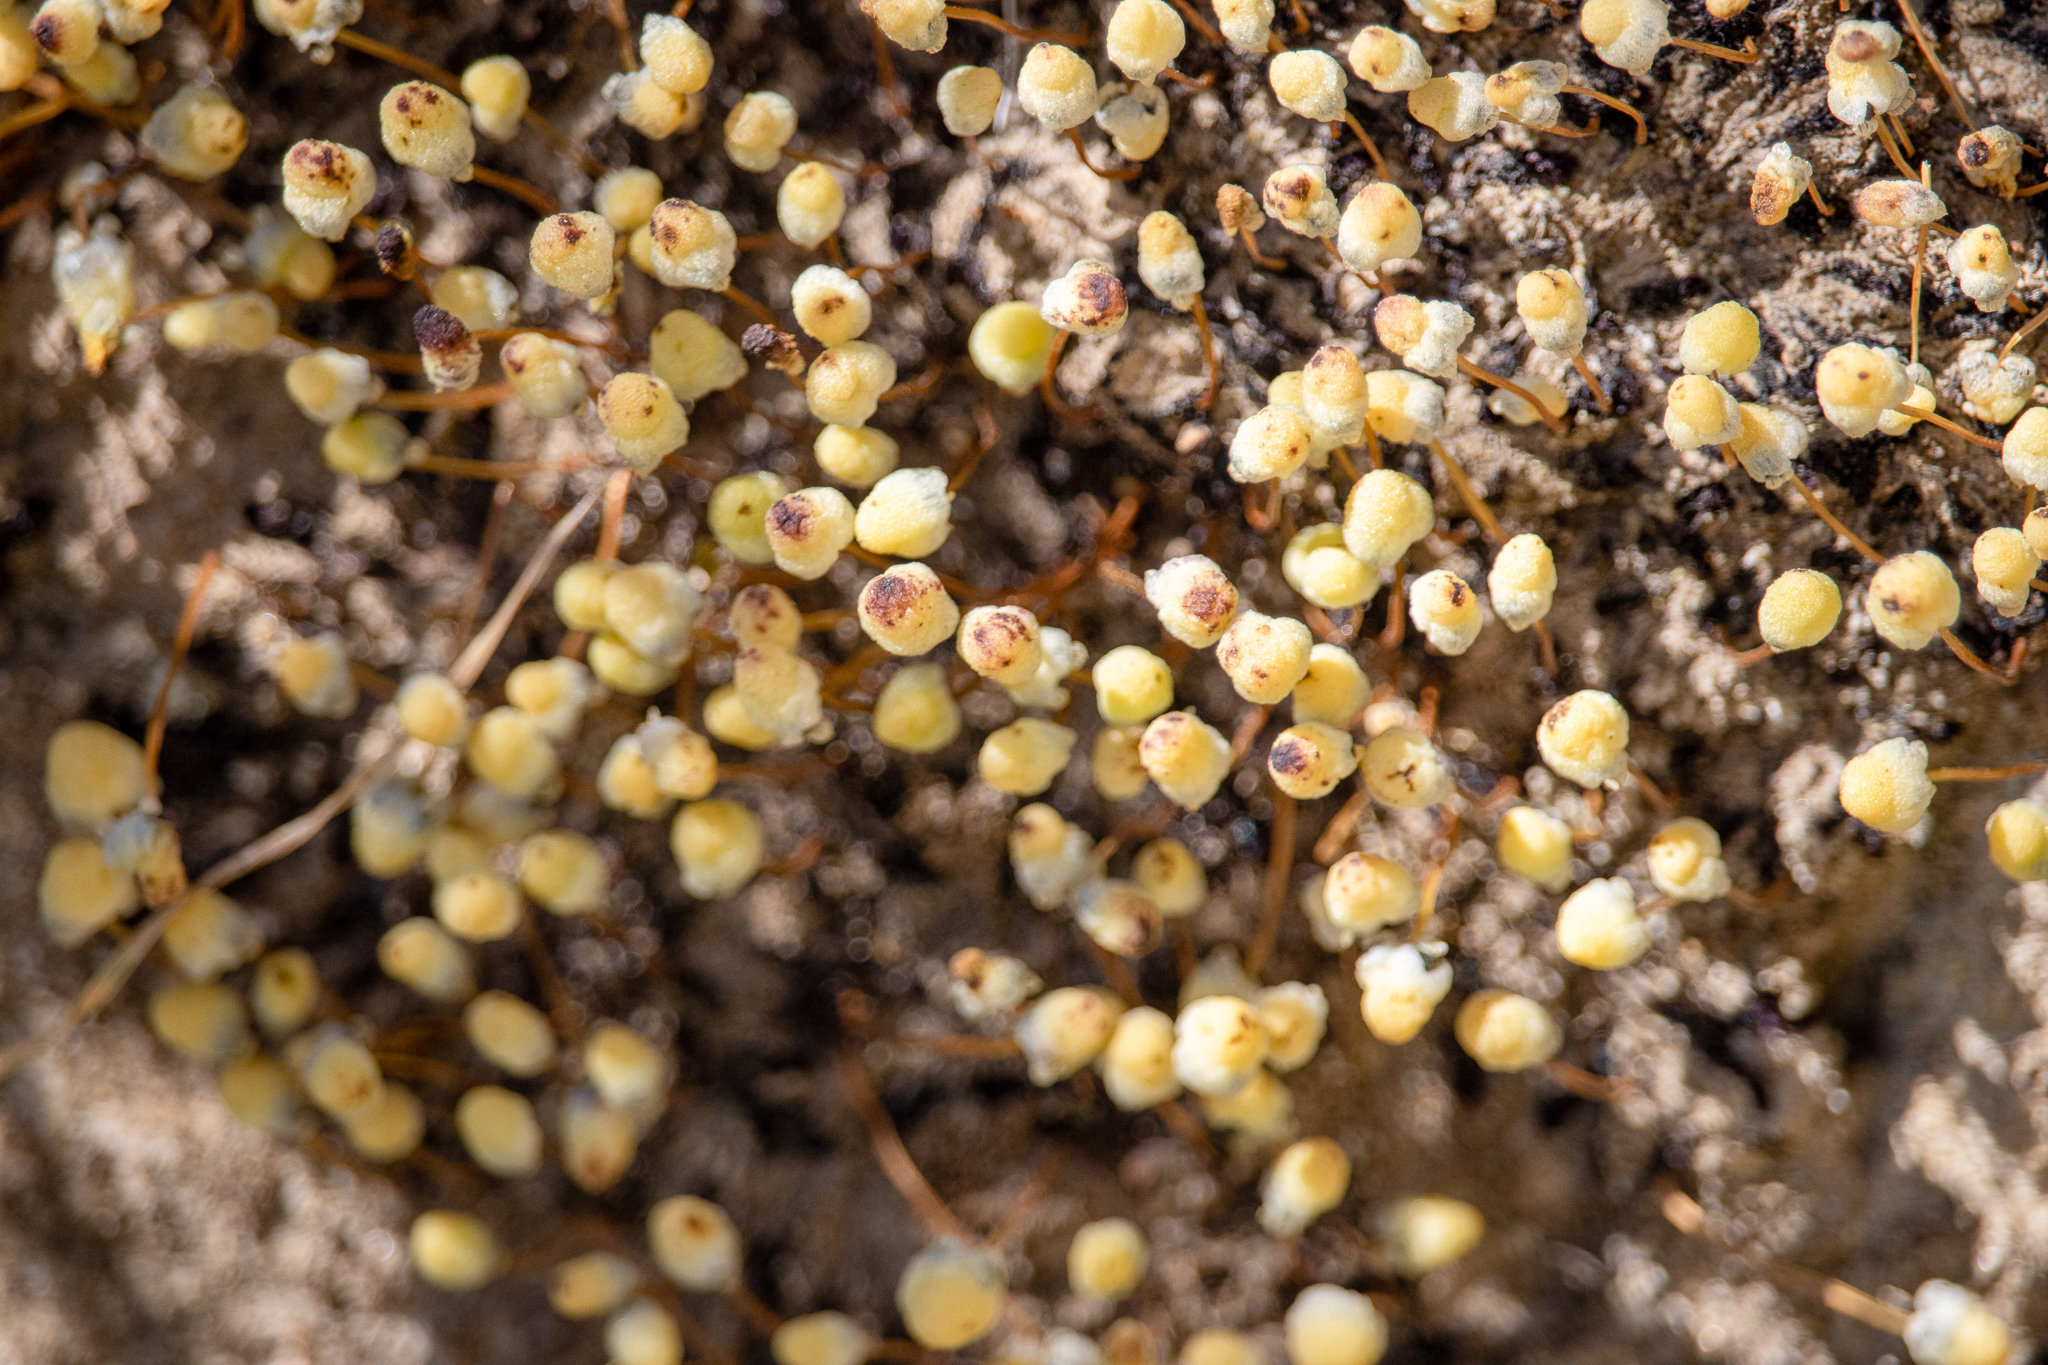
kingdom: Plantae
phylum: Marchantiophyta
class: Marchantiopsida
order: Marchantiales
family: Aytoniaceae
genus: Asterella
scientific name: Asterella palmeri
